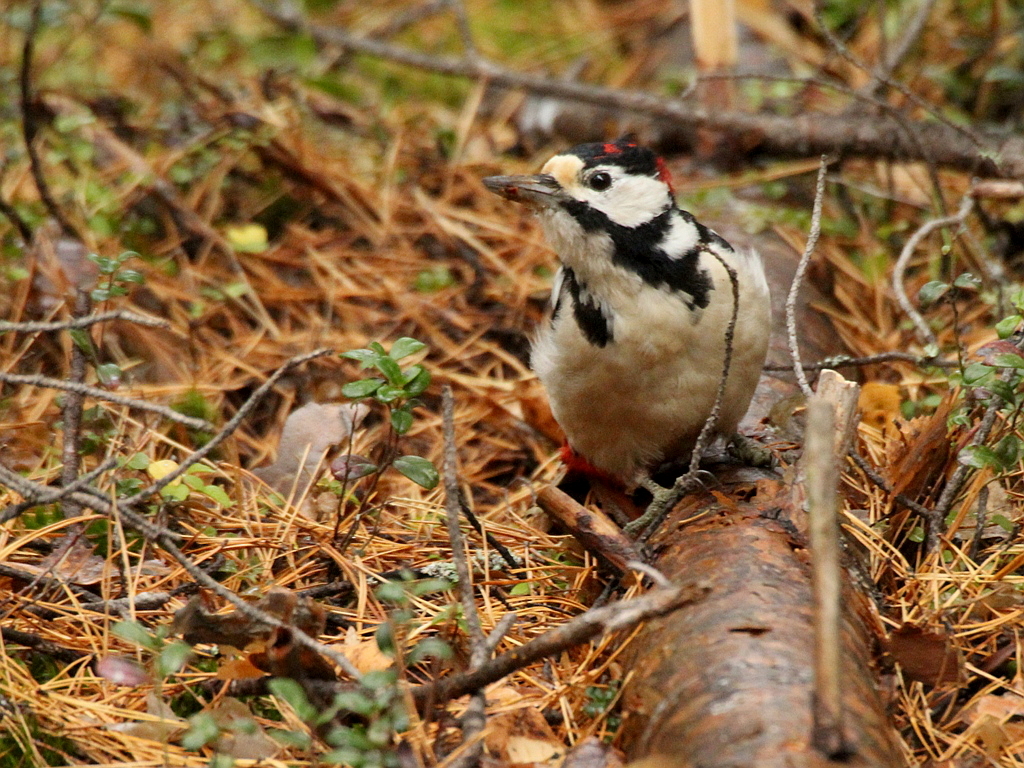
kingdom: Animalia
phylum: Chordata
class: Aves
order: Piciformes
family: Picidae
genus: Dendrocopos
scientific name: Dendrocopos major
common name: Great spotted woodpecker
